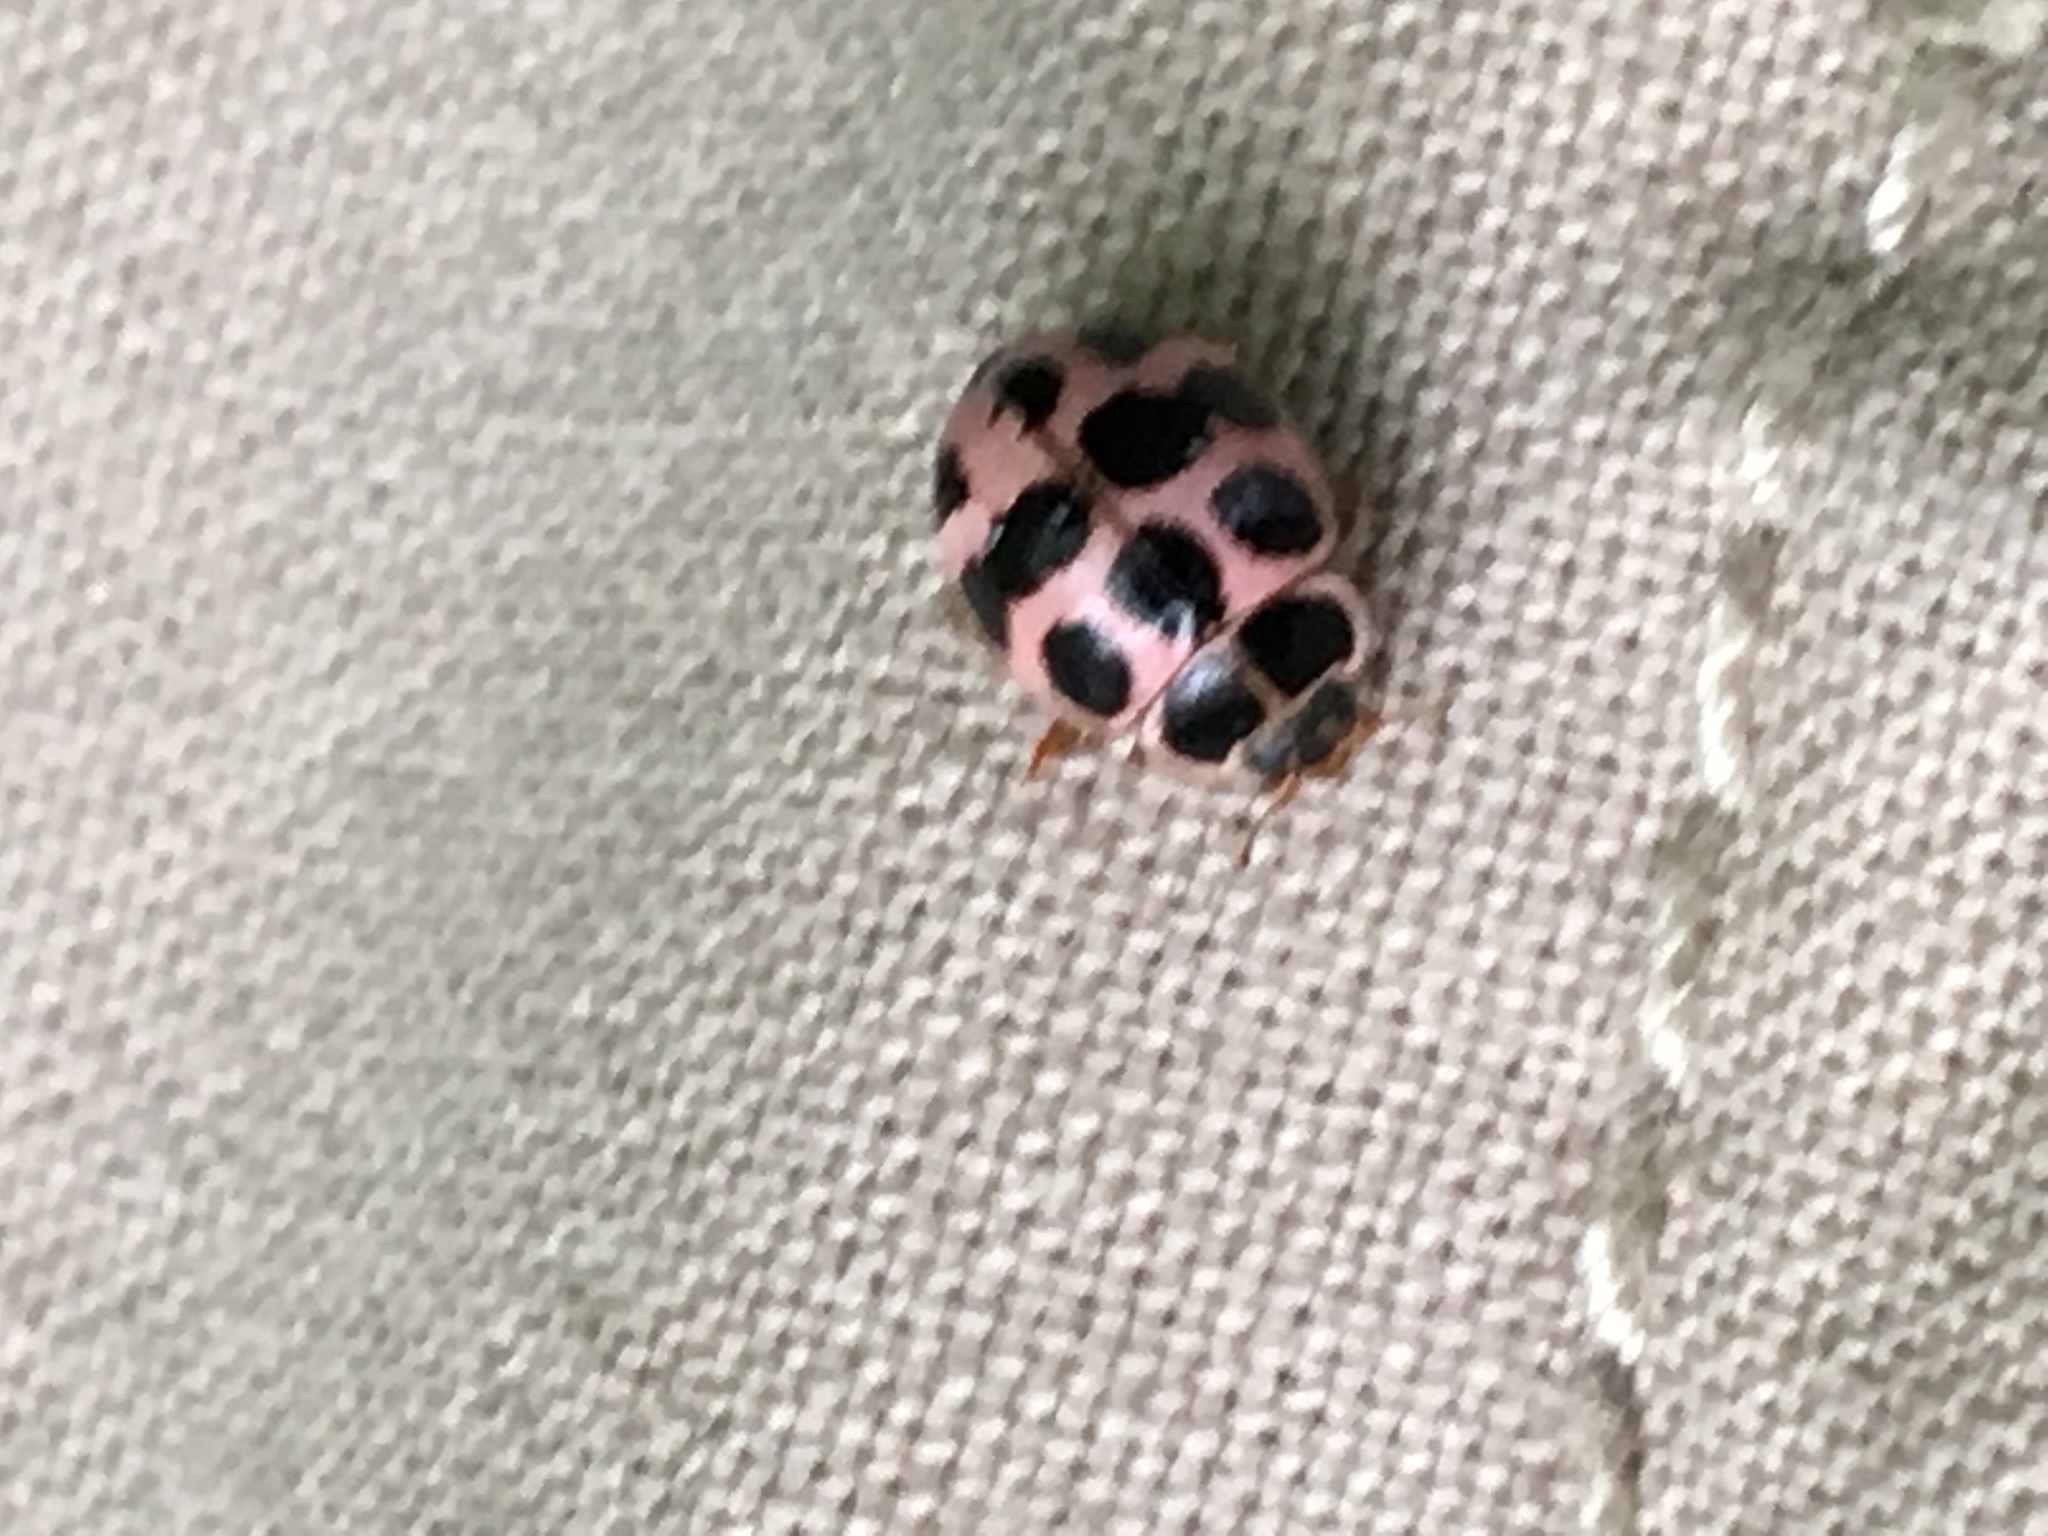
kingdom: Animalia
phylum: Arthropoda
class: Insecta
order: Coleoptera
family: Coccinellidae
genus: Calvia
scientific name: Calvia quatuordecimguttata
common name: Cream-spot ladybird
